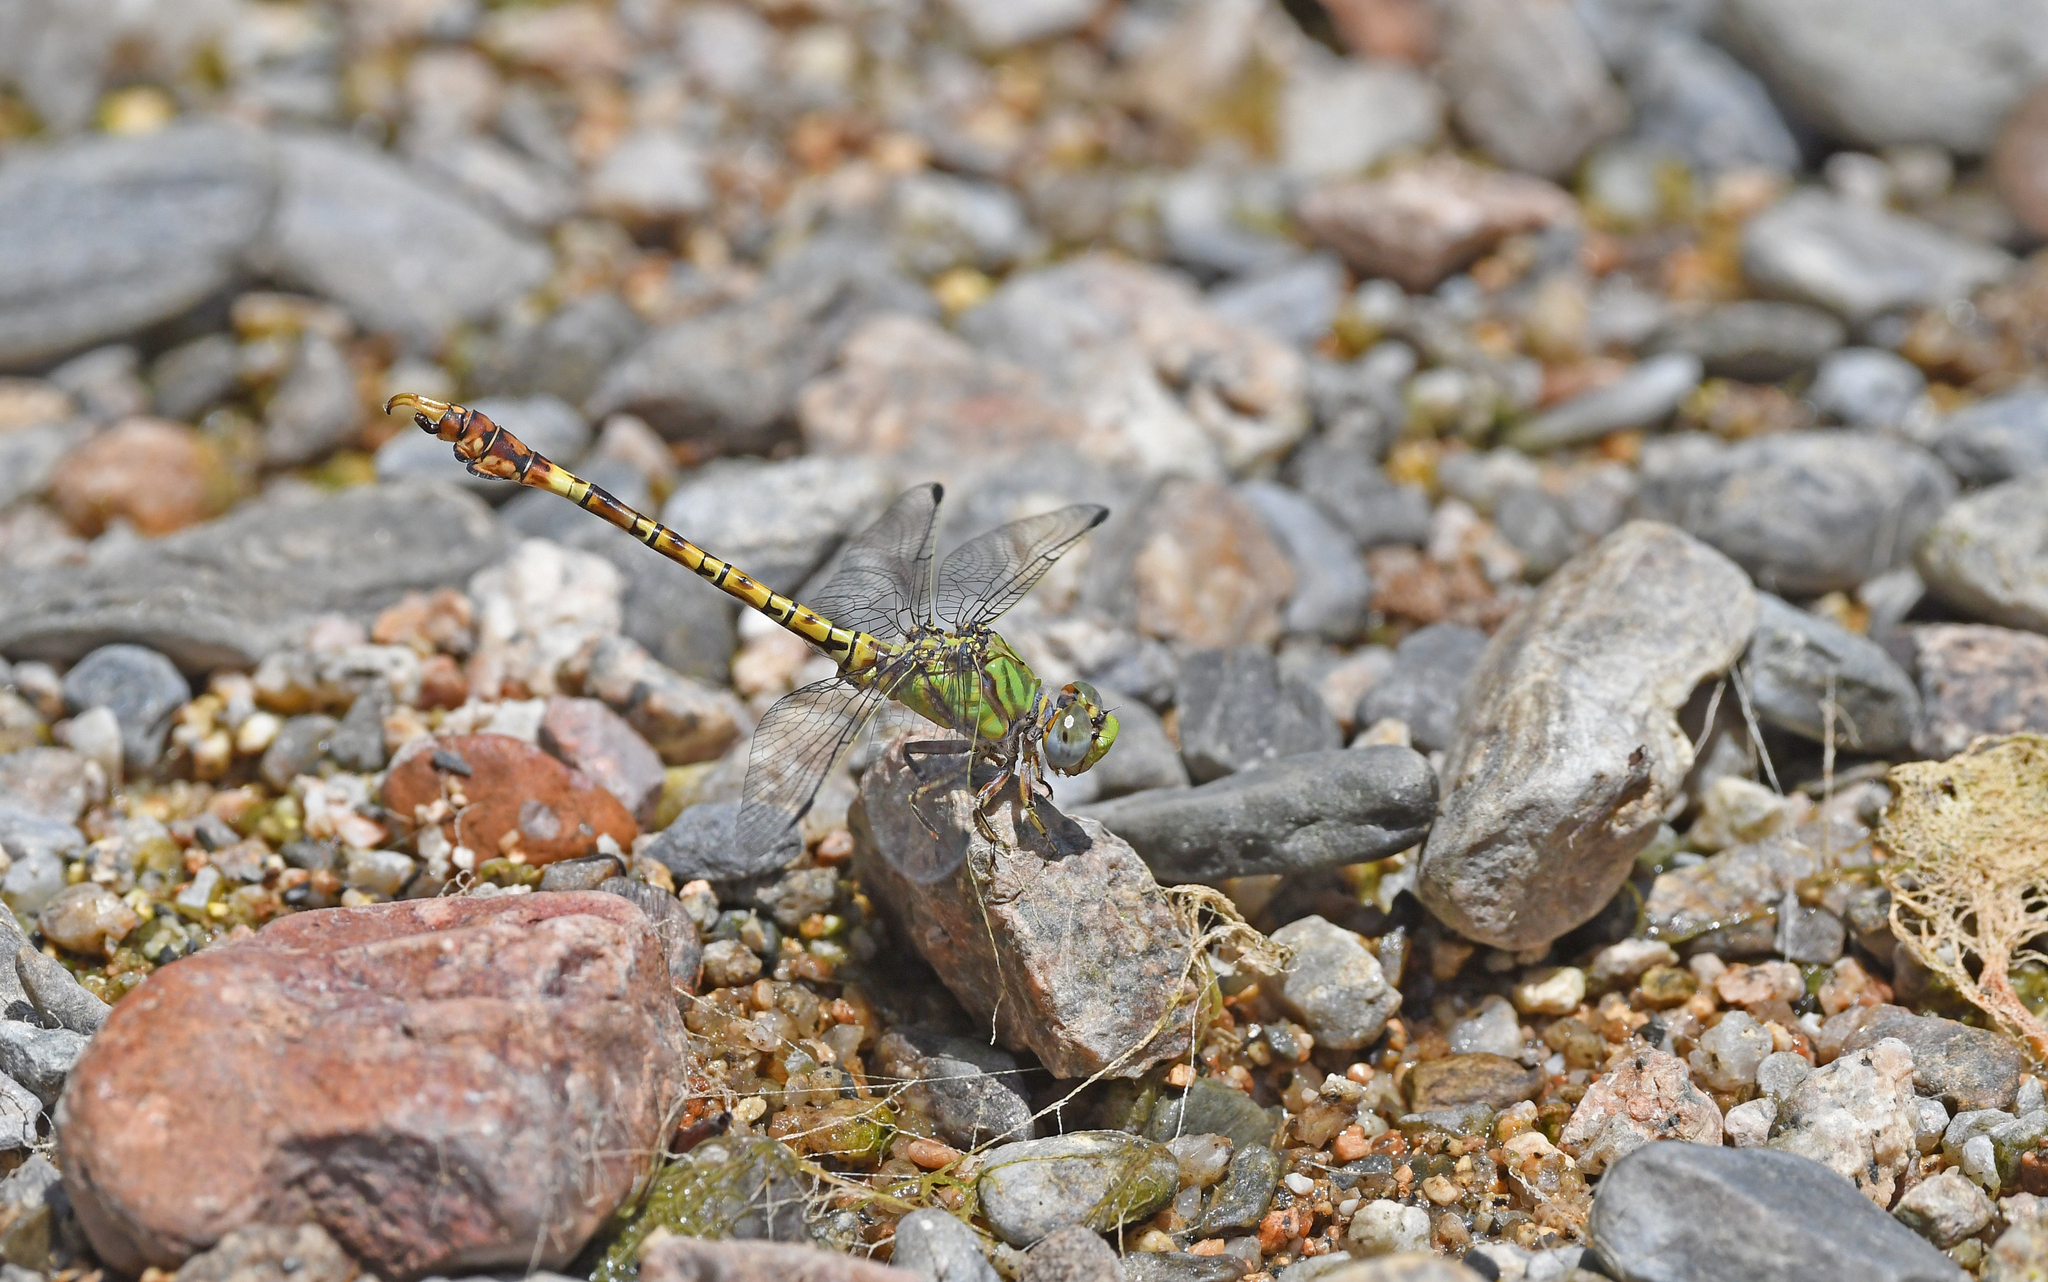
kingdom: Animalia
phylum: Arthropoda
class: Insecta
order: Odonata
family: Gomphidae
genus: Paragomphus
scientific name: Paragomphus genei
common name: Common hooktail
